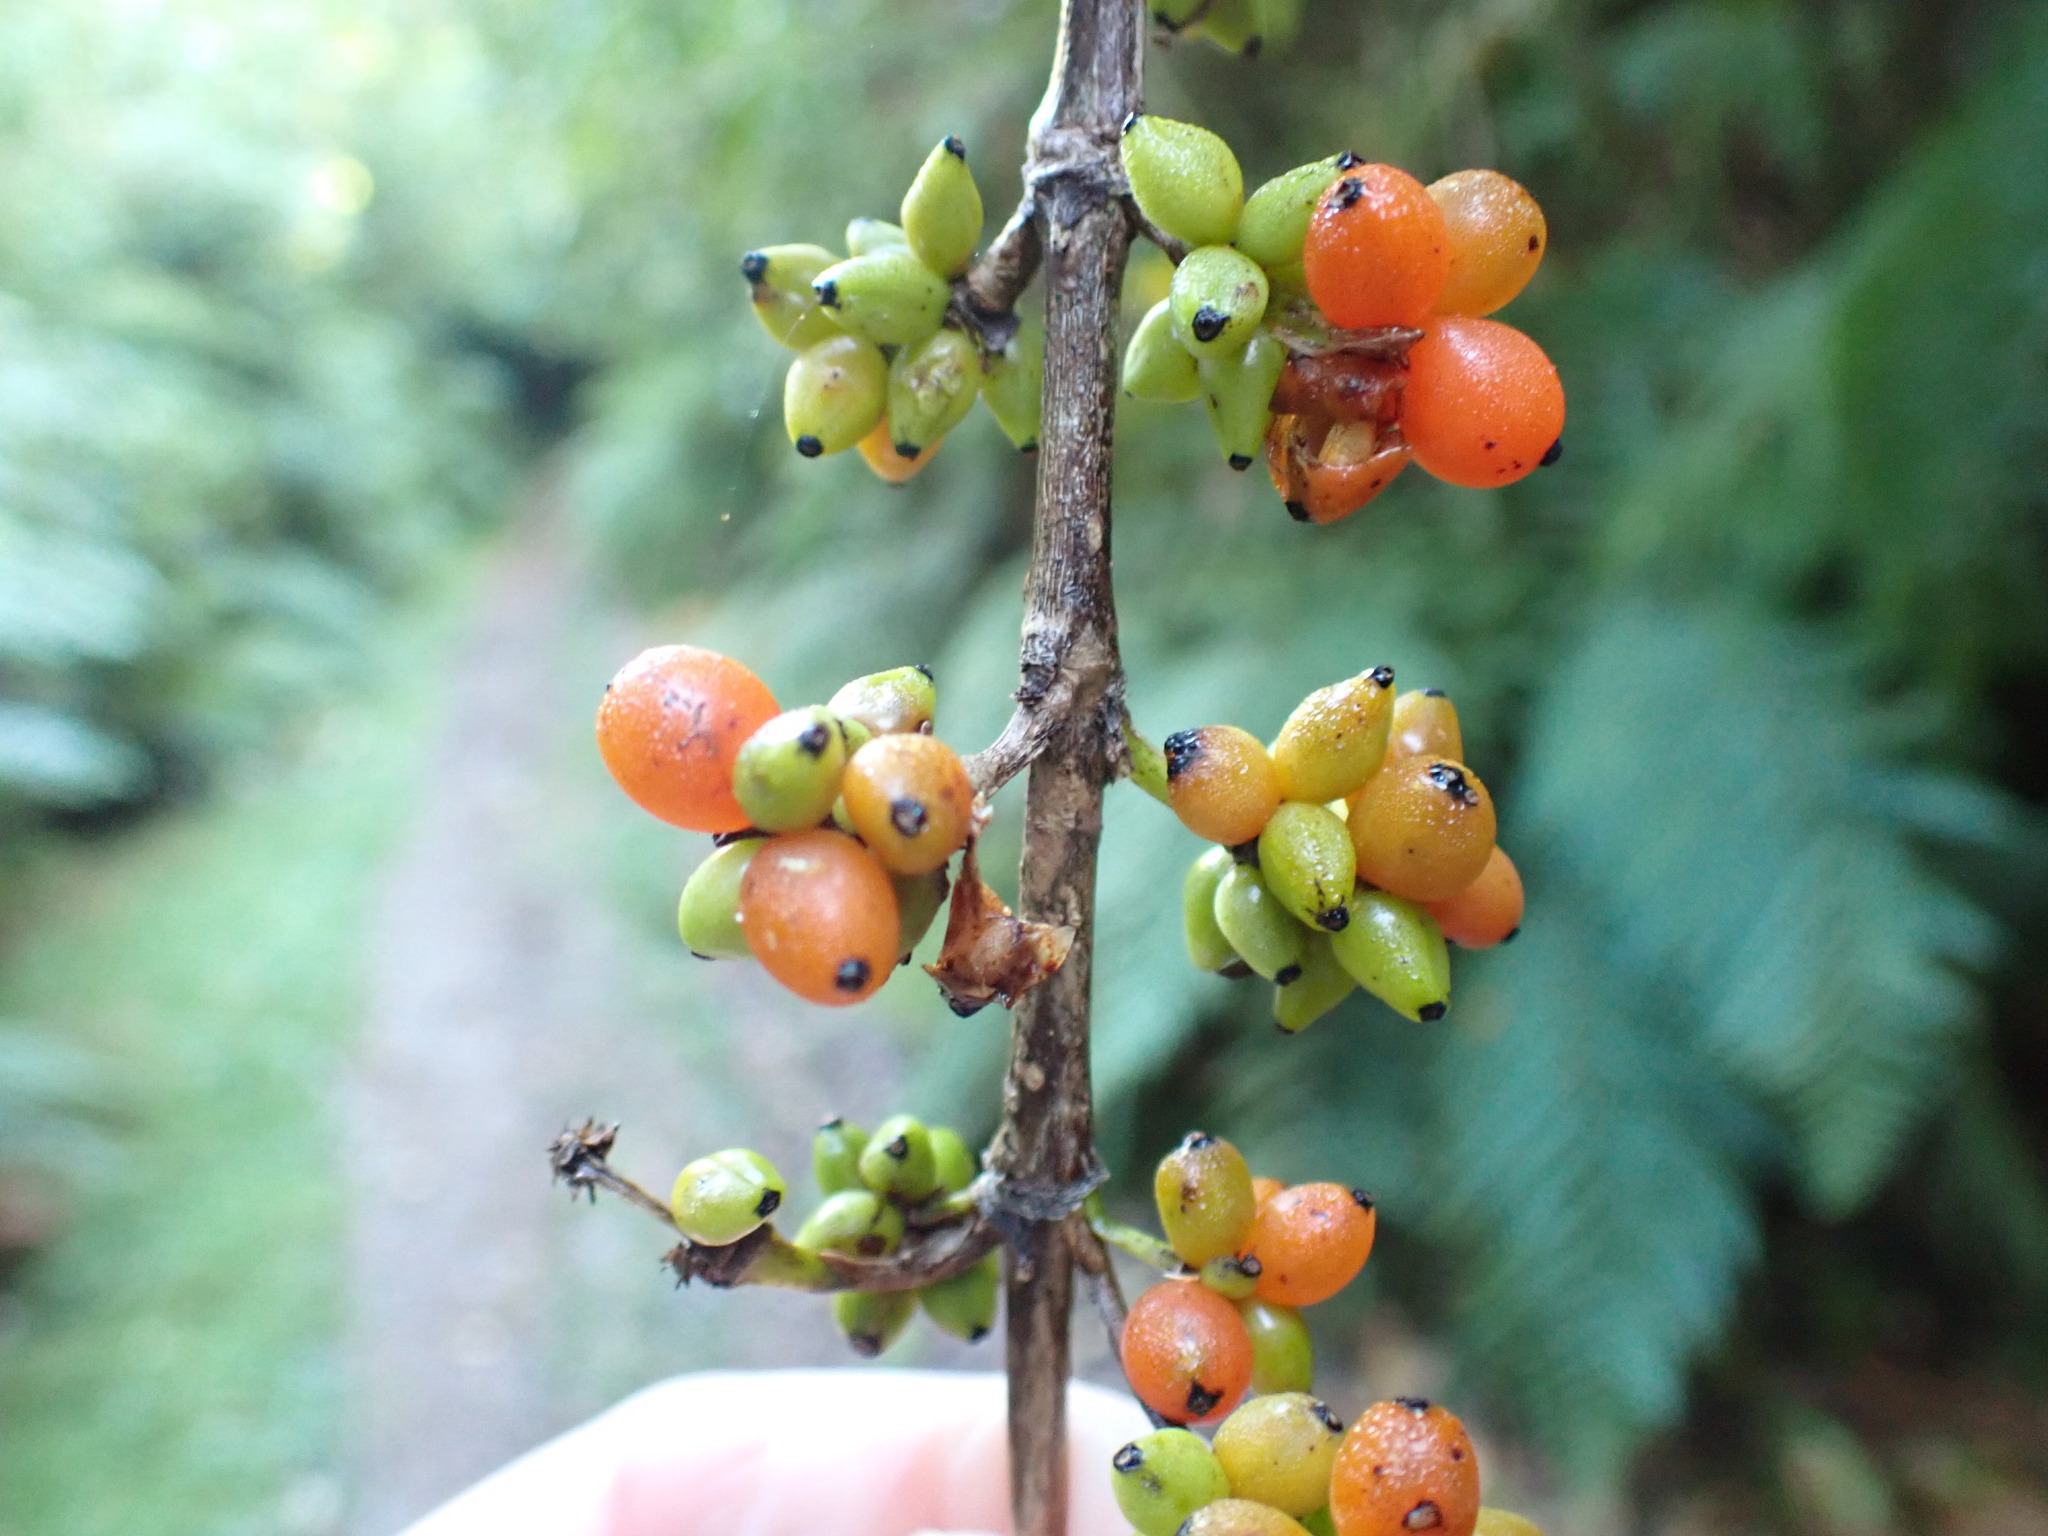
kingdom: Plantae
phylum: Tracheophyta
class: Magnoliopsida
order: Gentianales
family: Rubiaceae
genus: Coprosma
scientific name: Coprosma robusta
